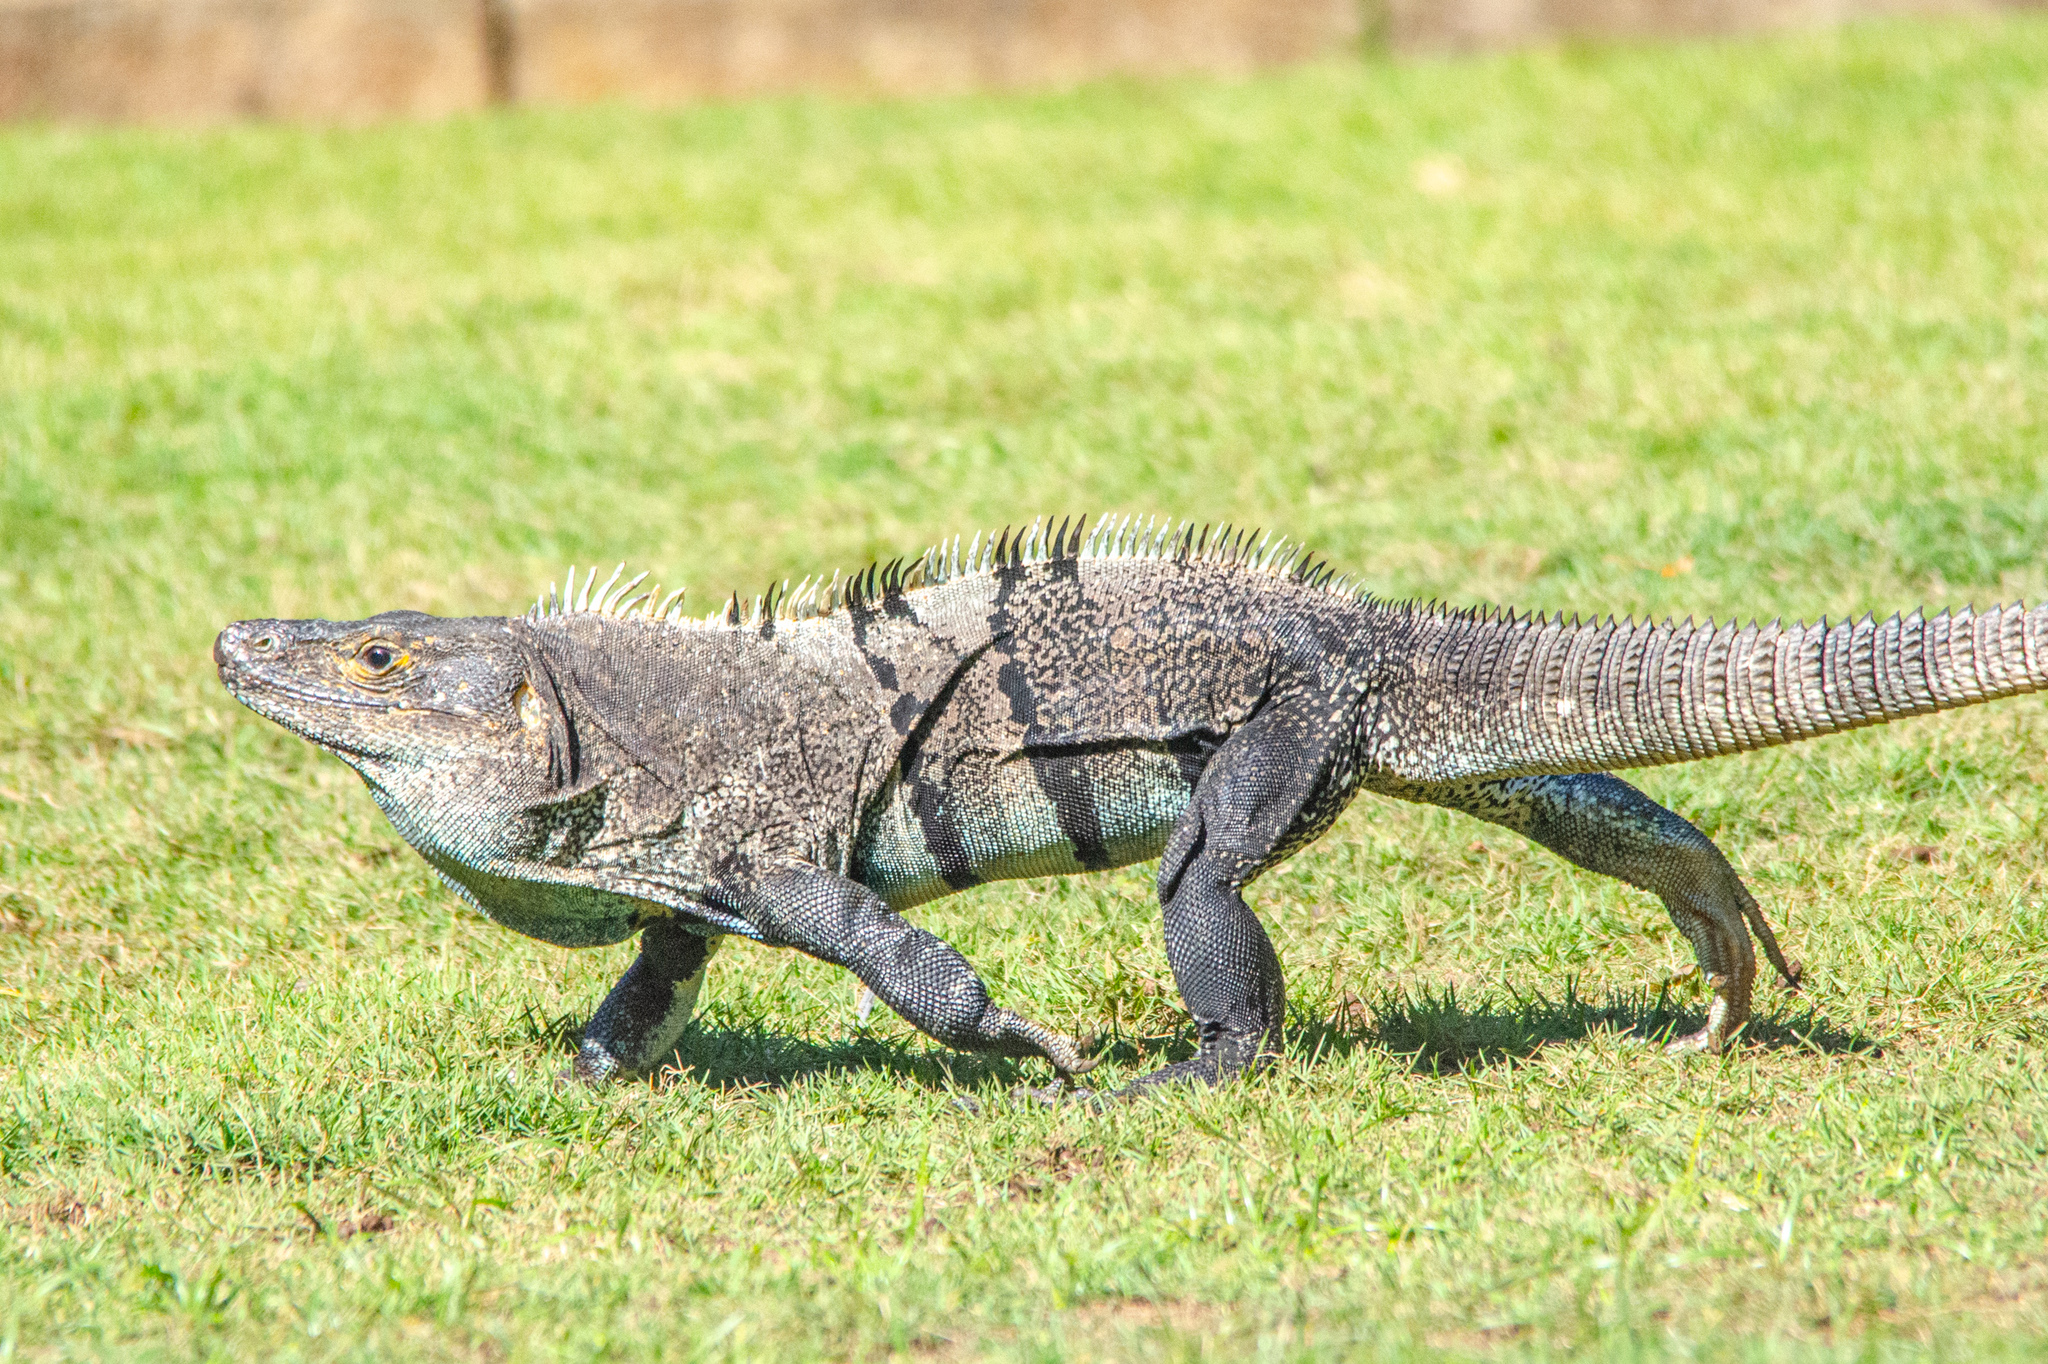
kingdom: Animalia
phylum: Chordata
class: Squamata
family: Iguanidae
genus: Ctenosaura
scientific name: Ctenosaura similis
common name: Black spiny-tailed iguana
